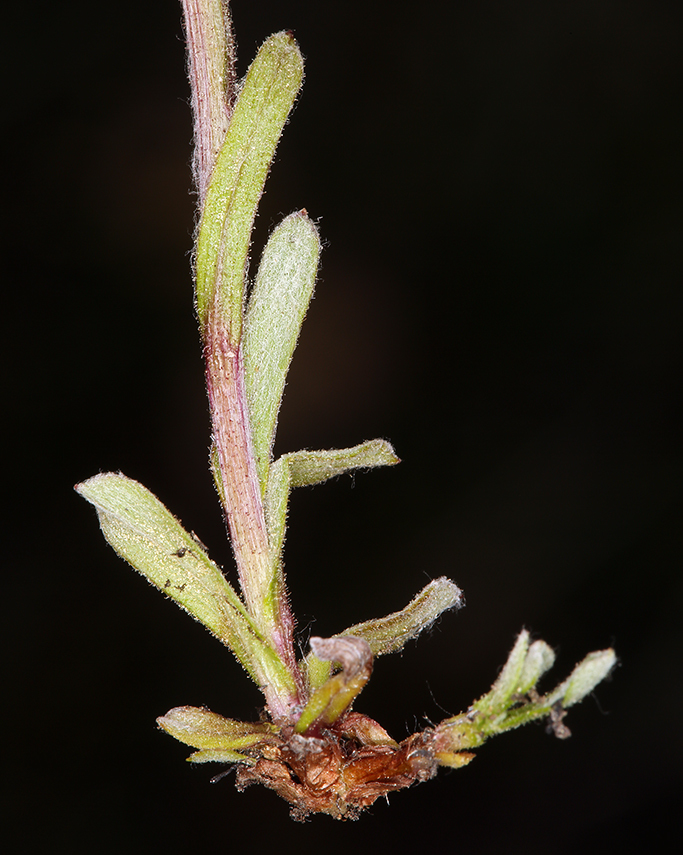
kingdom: Plantae
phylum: Tracheophyta
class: Magnoliopsida
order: Asterales
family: Asteraceae
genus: Antennaria
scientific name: Antennaria media
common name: Rocky mountain pussytoes
